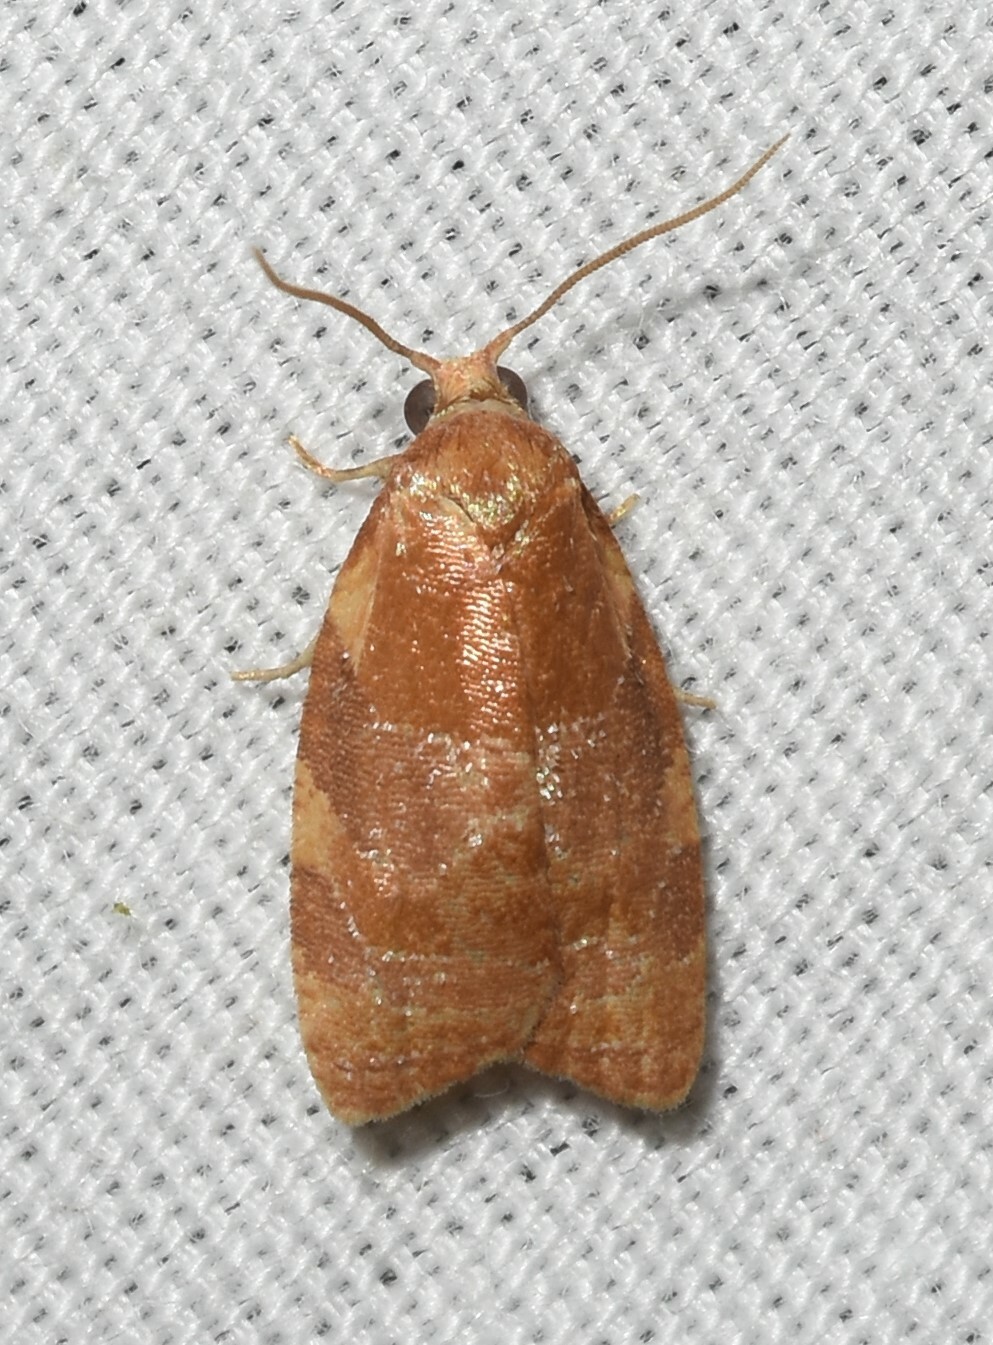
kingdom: Animalia
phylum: Arthropoda
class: Insecta
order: Lepidoptera
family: Tortricidae
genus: Cenopis
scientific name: Cenopis diluticostana
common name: Spring dead-leaf roller moth
